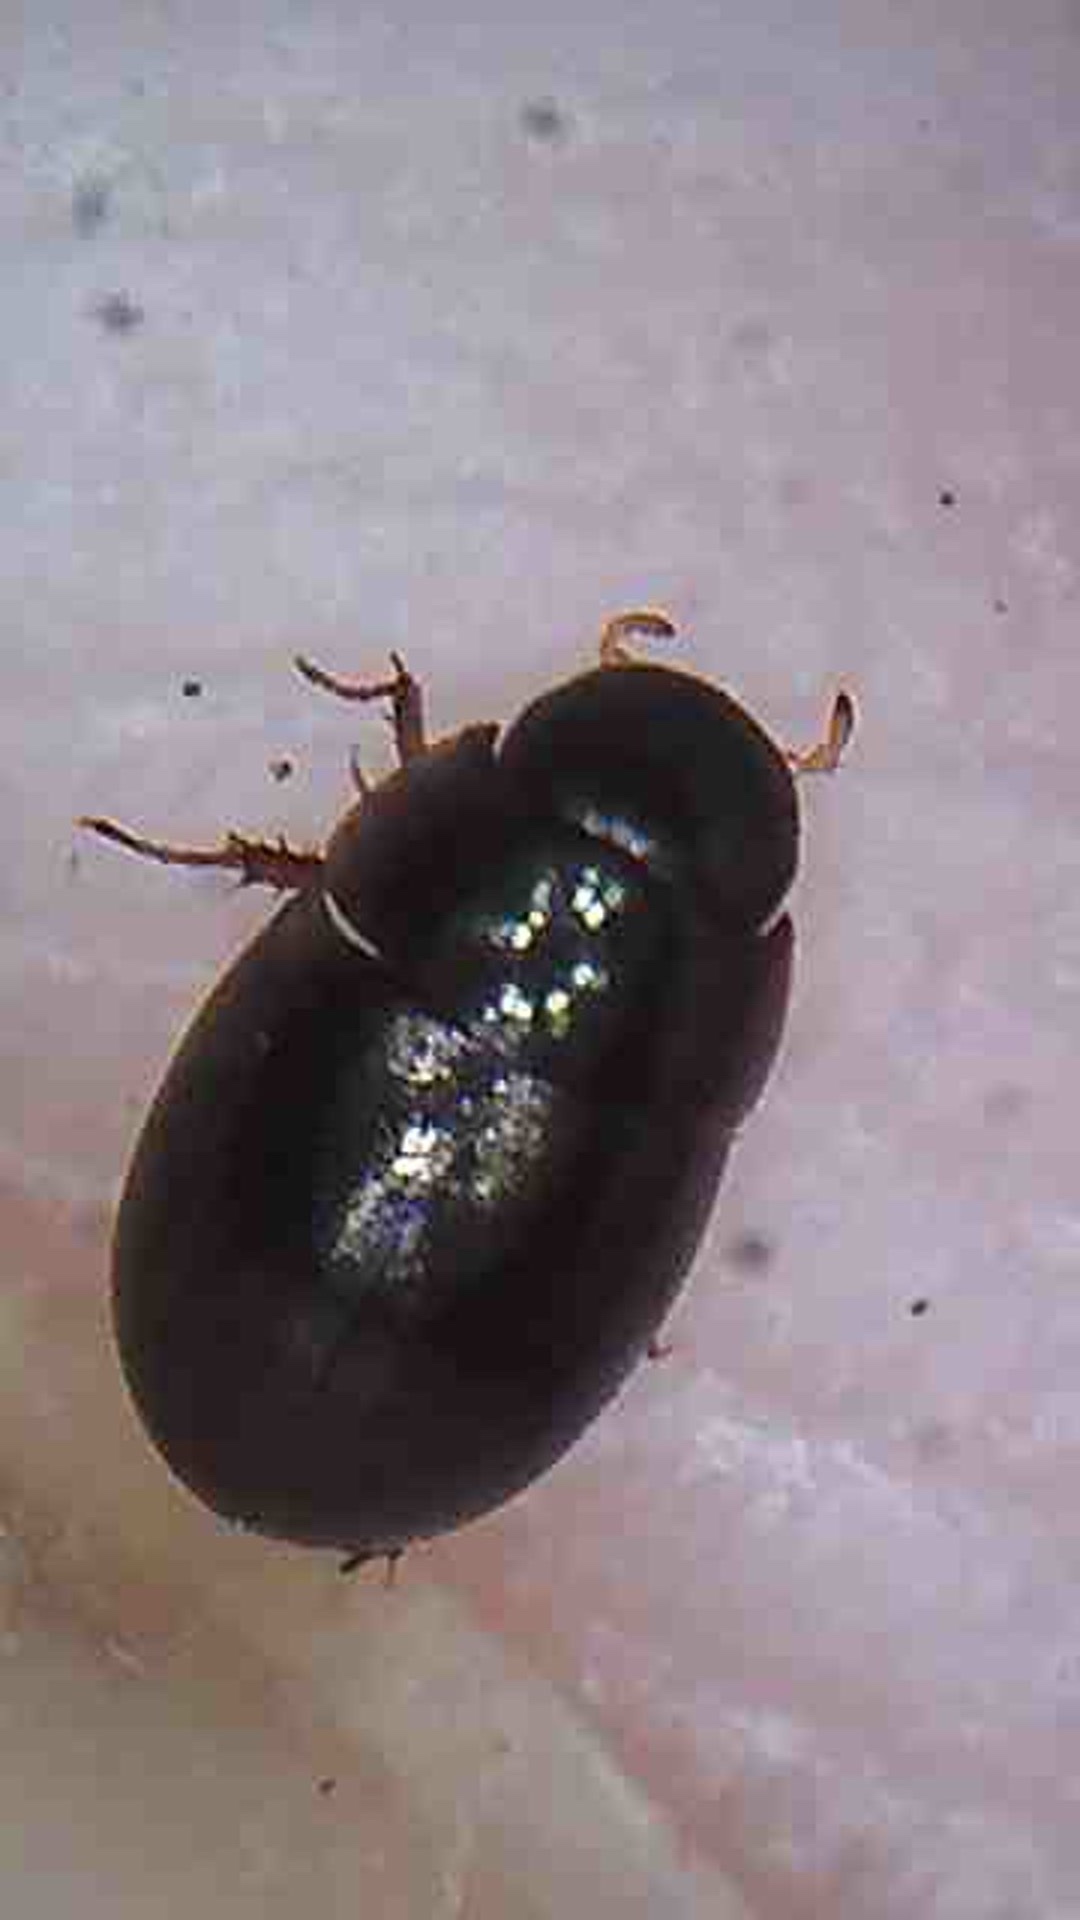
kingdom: Animalia
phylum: Arthropoda
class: Insecta
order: Coleoptera
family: Hydrophilidae
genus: Paracymus
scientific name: Paracymus pygmaeus
